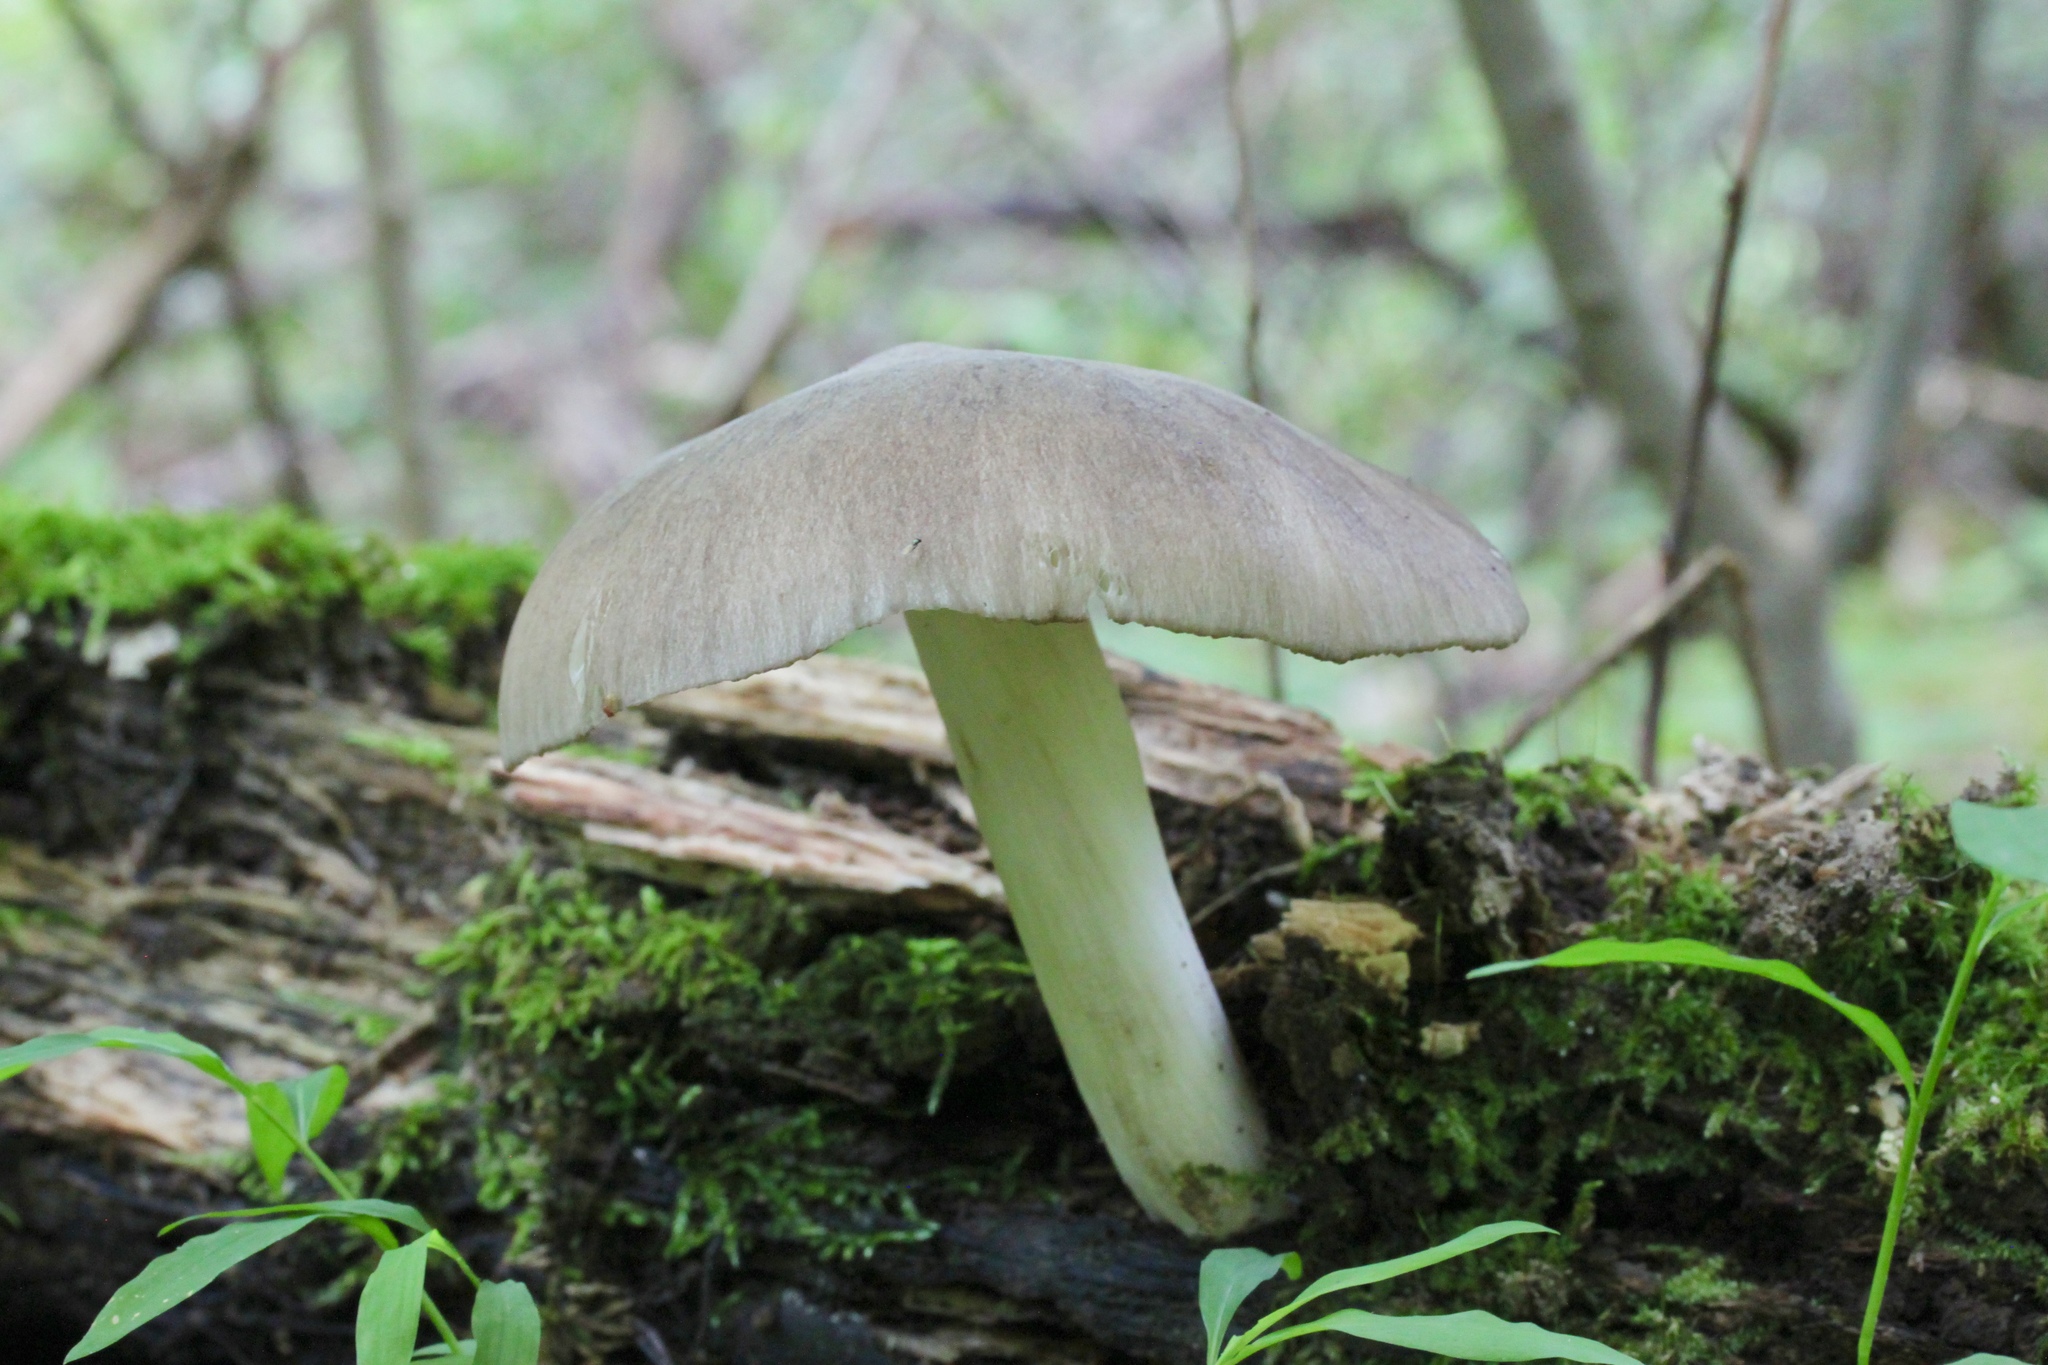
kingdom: Fungi
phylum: Basidiomycota
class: Agaricomycetes
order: Agaricales
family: Tricholomataceae
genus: Megacollybia
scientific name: Megacollybia rodmanii
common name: Eastern american platterful mushroom
